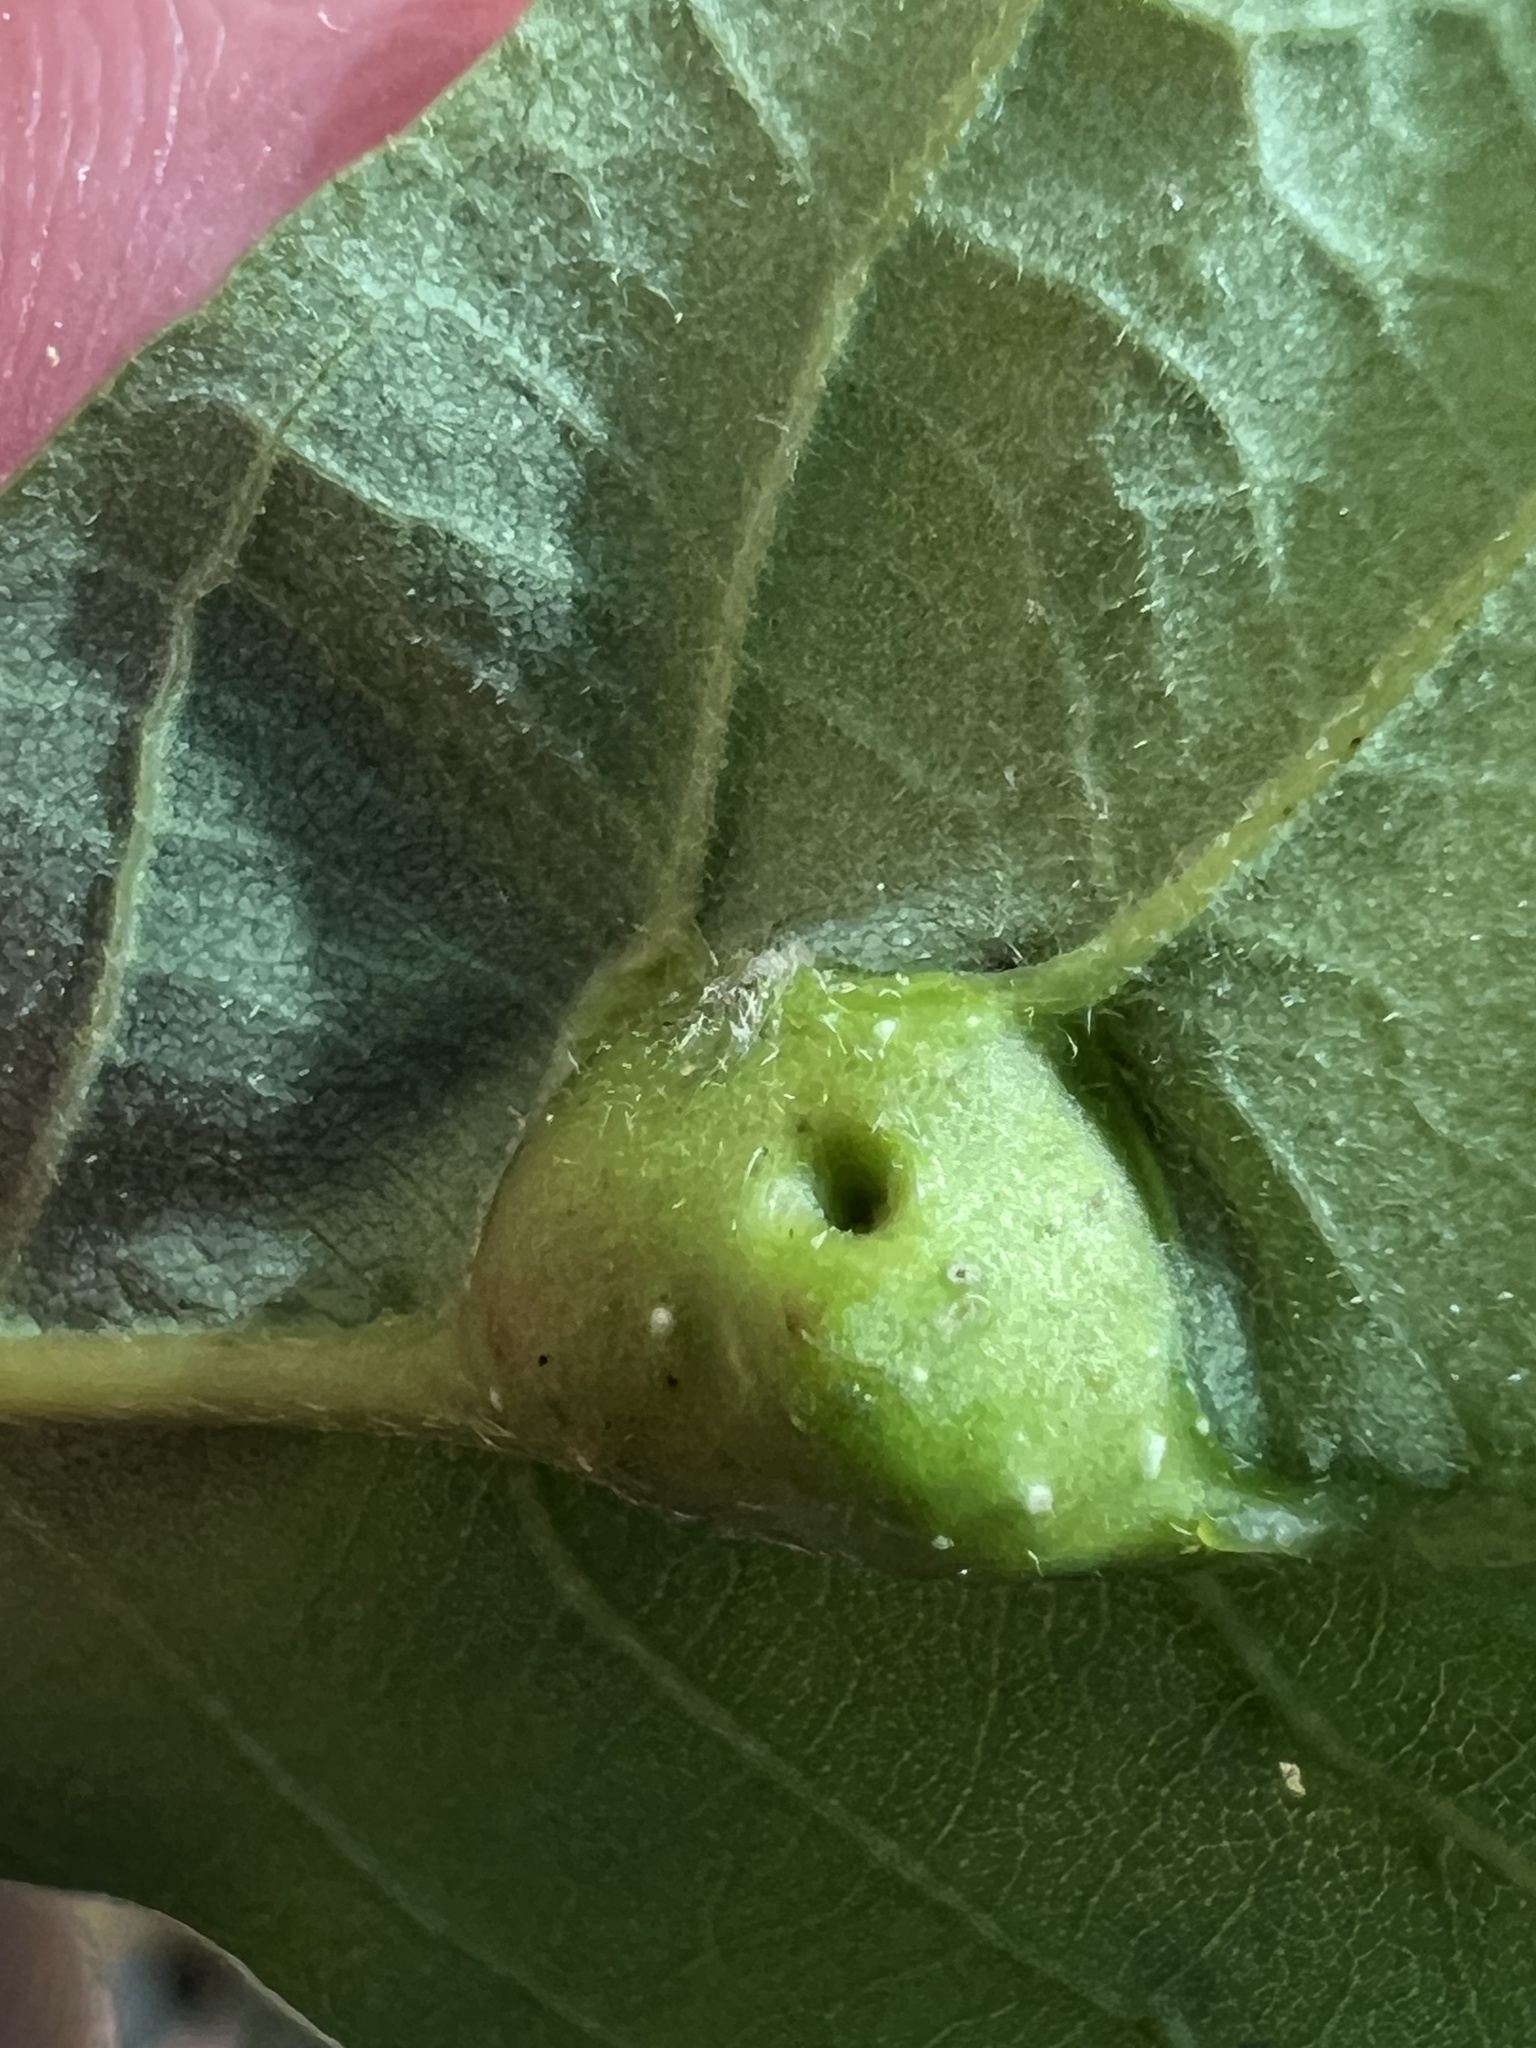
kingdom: Animalia
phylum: Arthropoda
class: Insecta
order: Hymenoptera
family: Cynipidae
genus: Andricus
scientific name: Andricus
